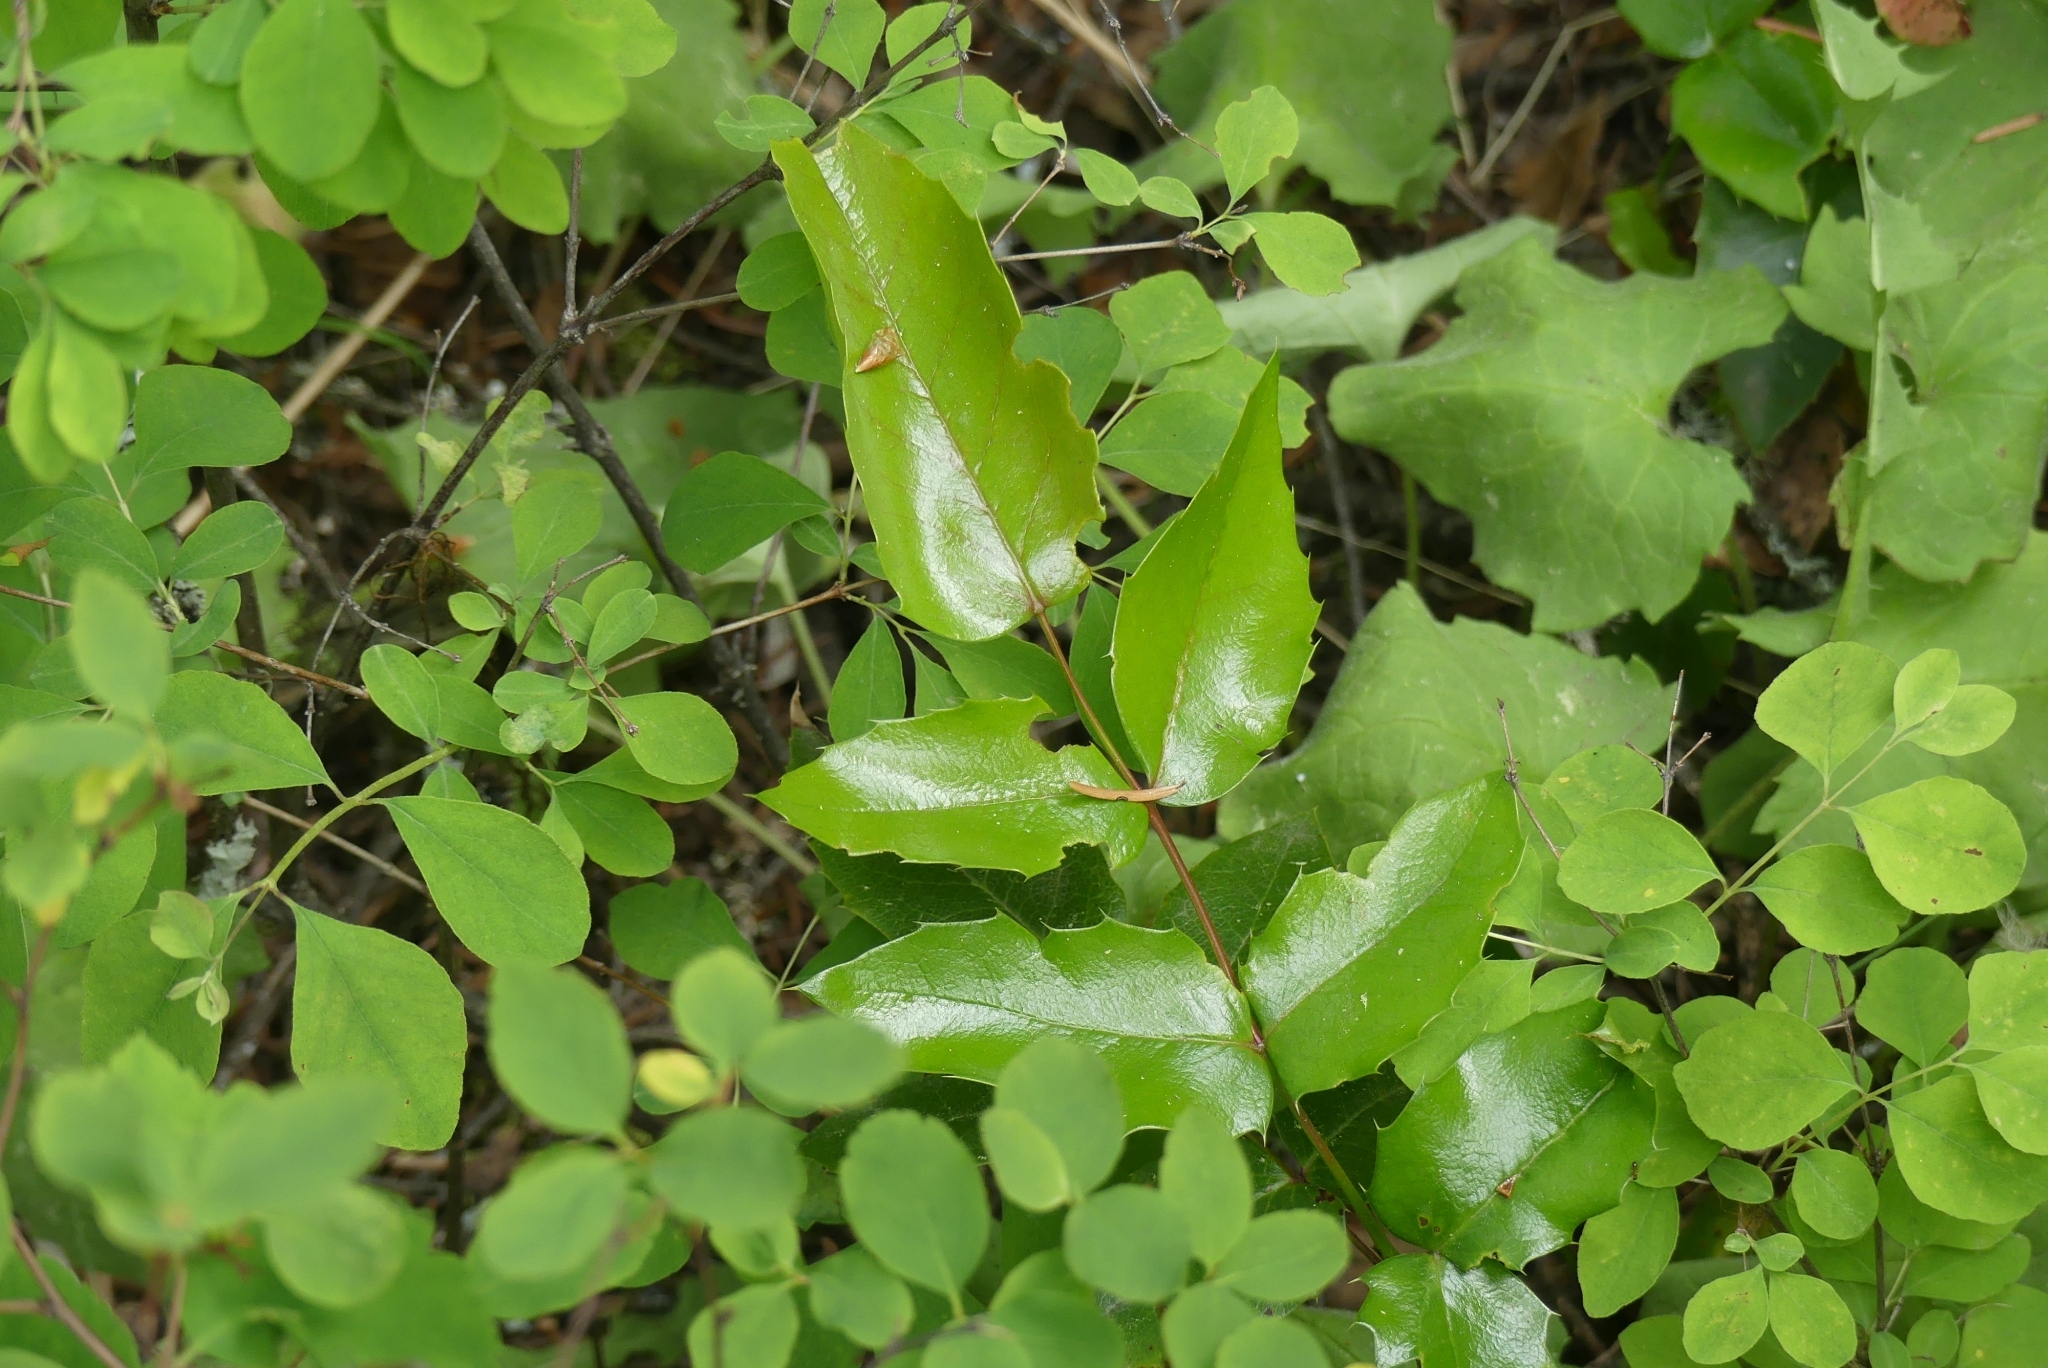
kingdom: Plantae
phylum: Tracheophyta
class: Magnoliopsida
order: Ranunculales
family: Berberidaceae
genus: Mahonia
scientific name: Mahonia aquifolium
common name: Oregon-grape
